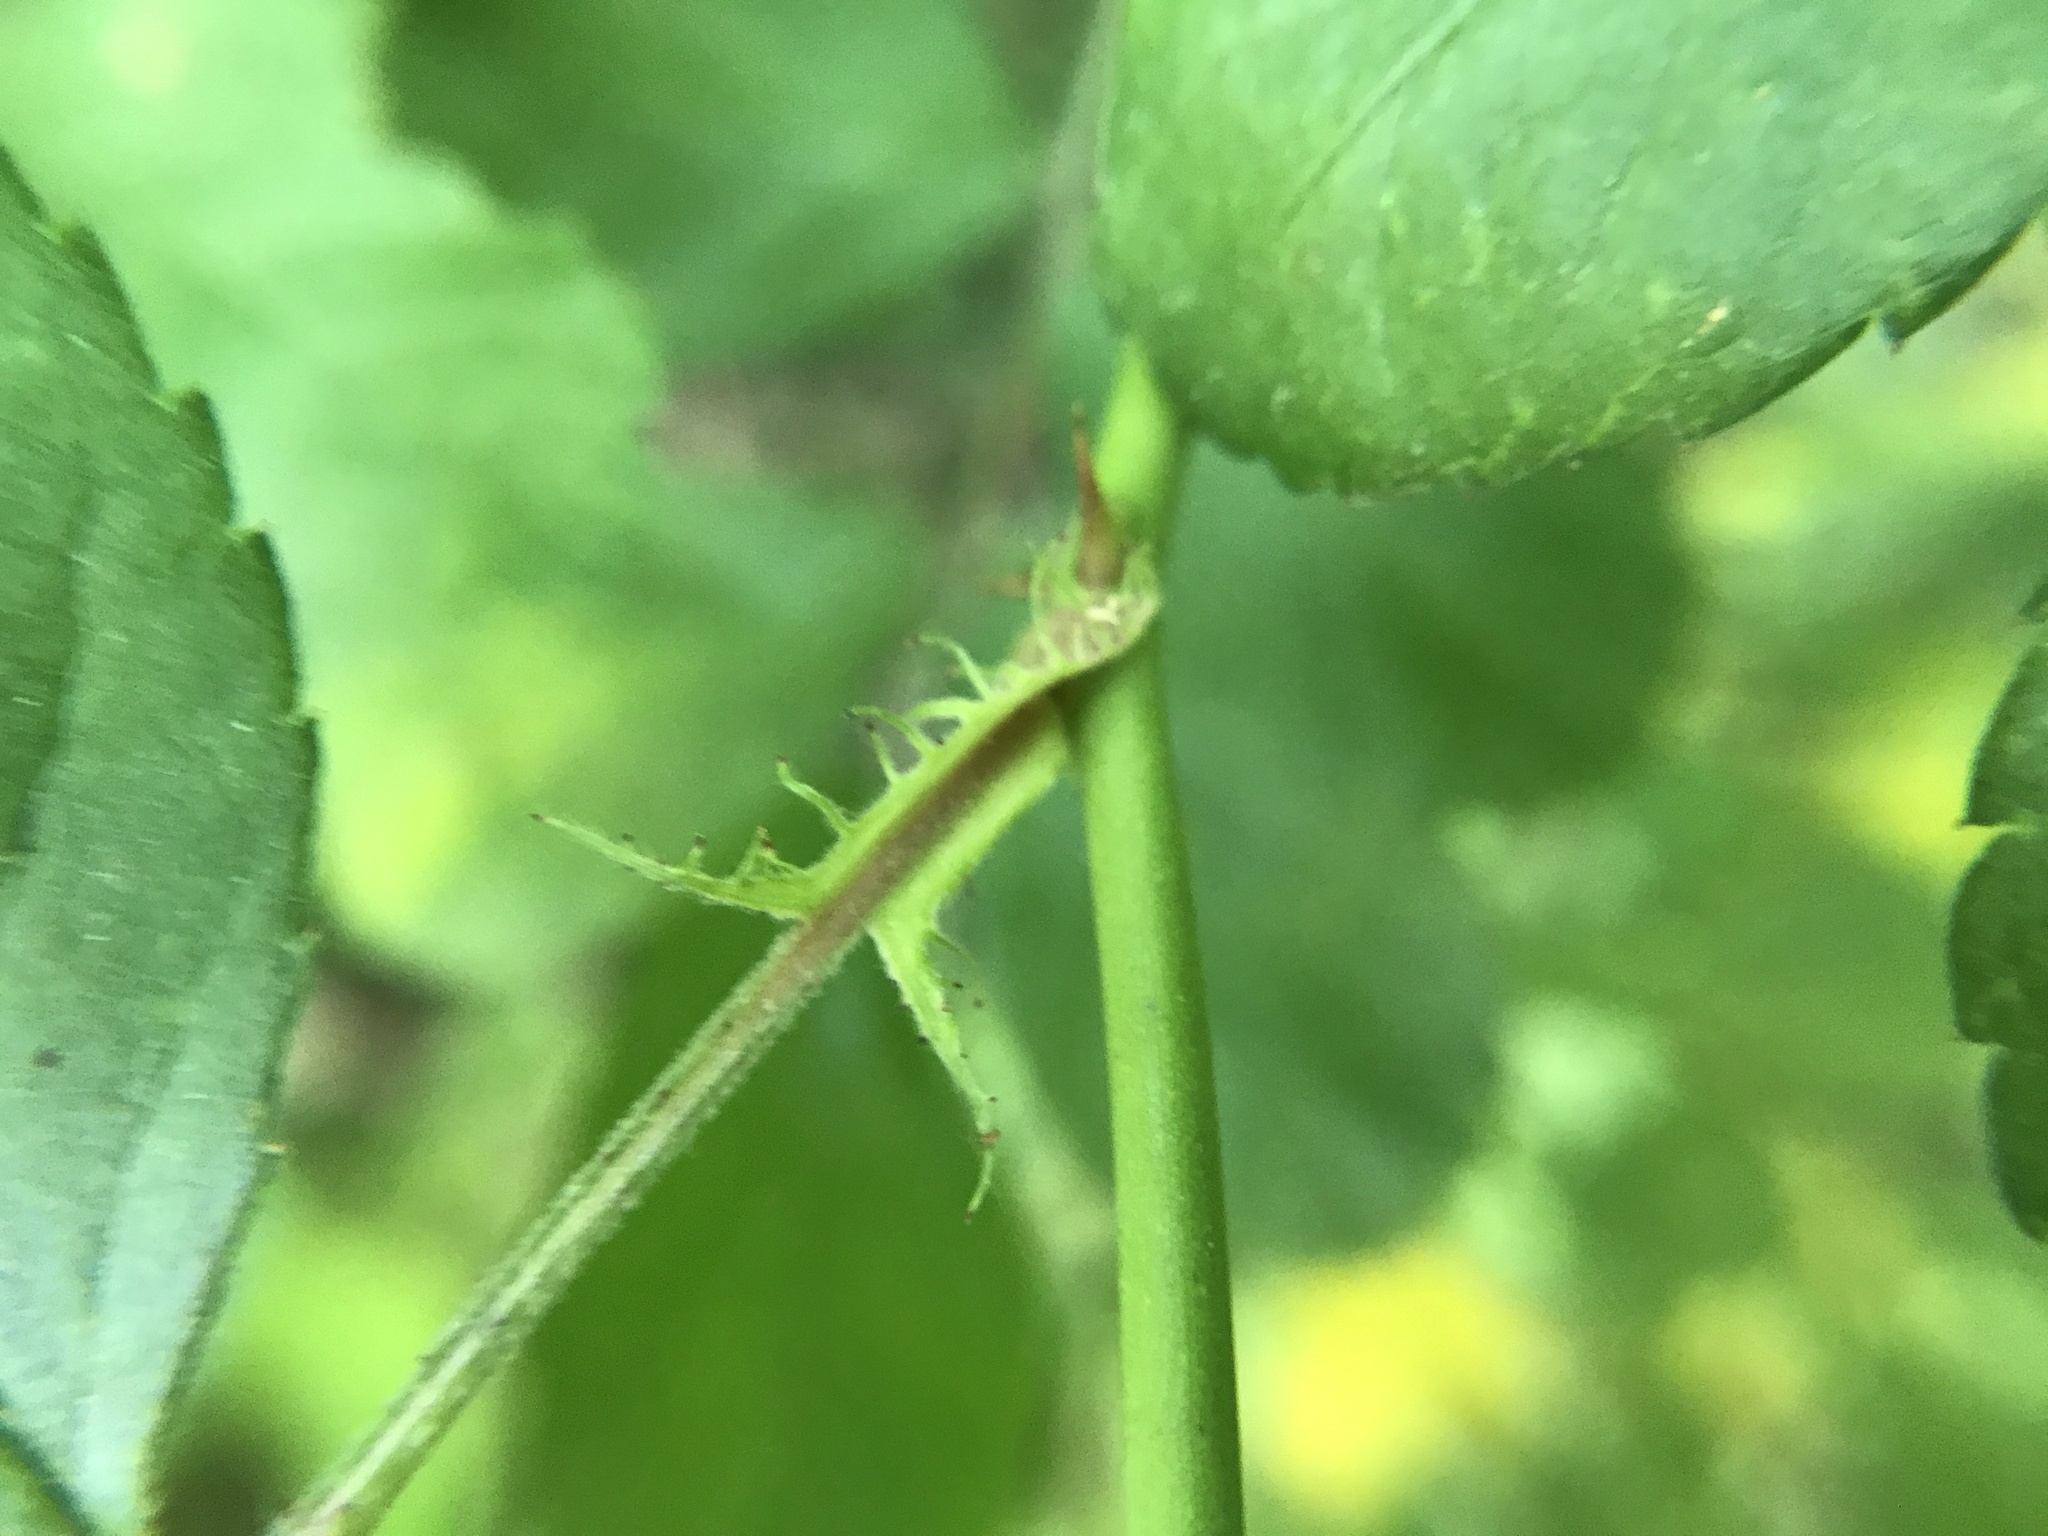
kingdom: Plantae
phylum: Tracheophyta
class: Magnoliopsida
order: Rosales
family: Rosaceae
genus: Rosa
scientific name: Rosa multiflora
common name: Multiflora rose
